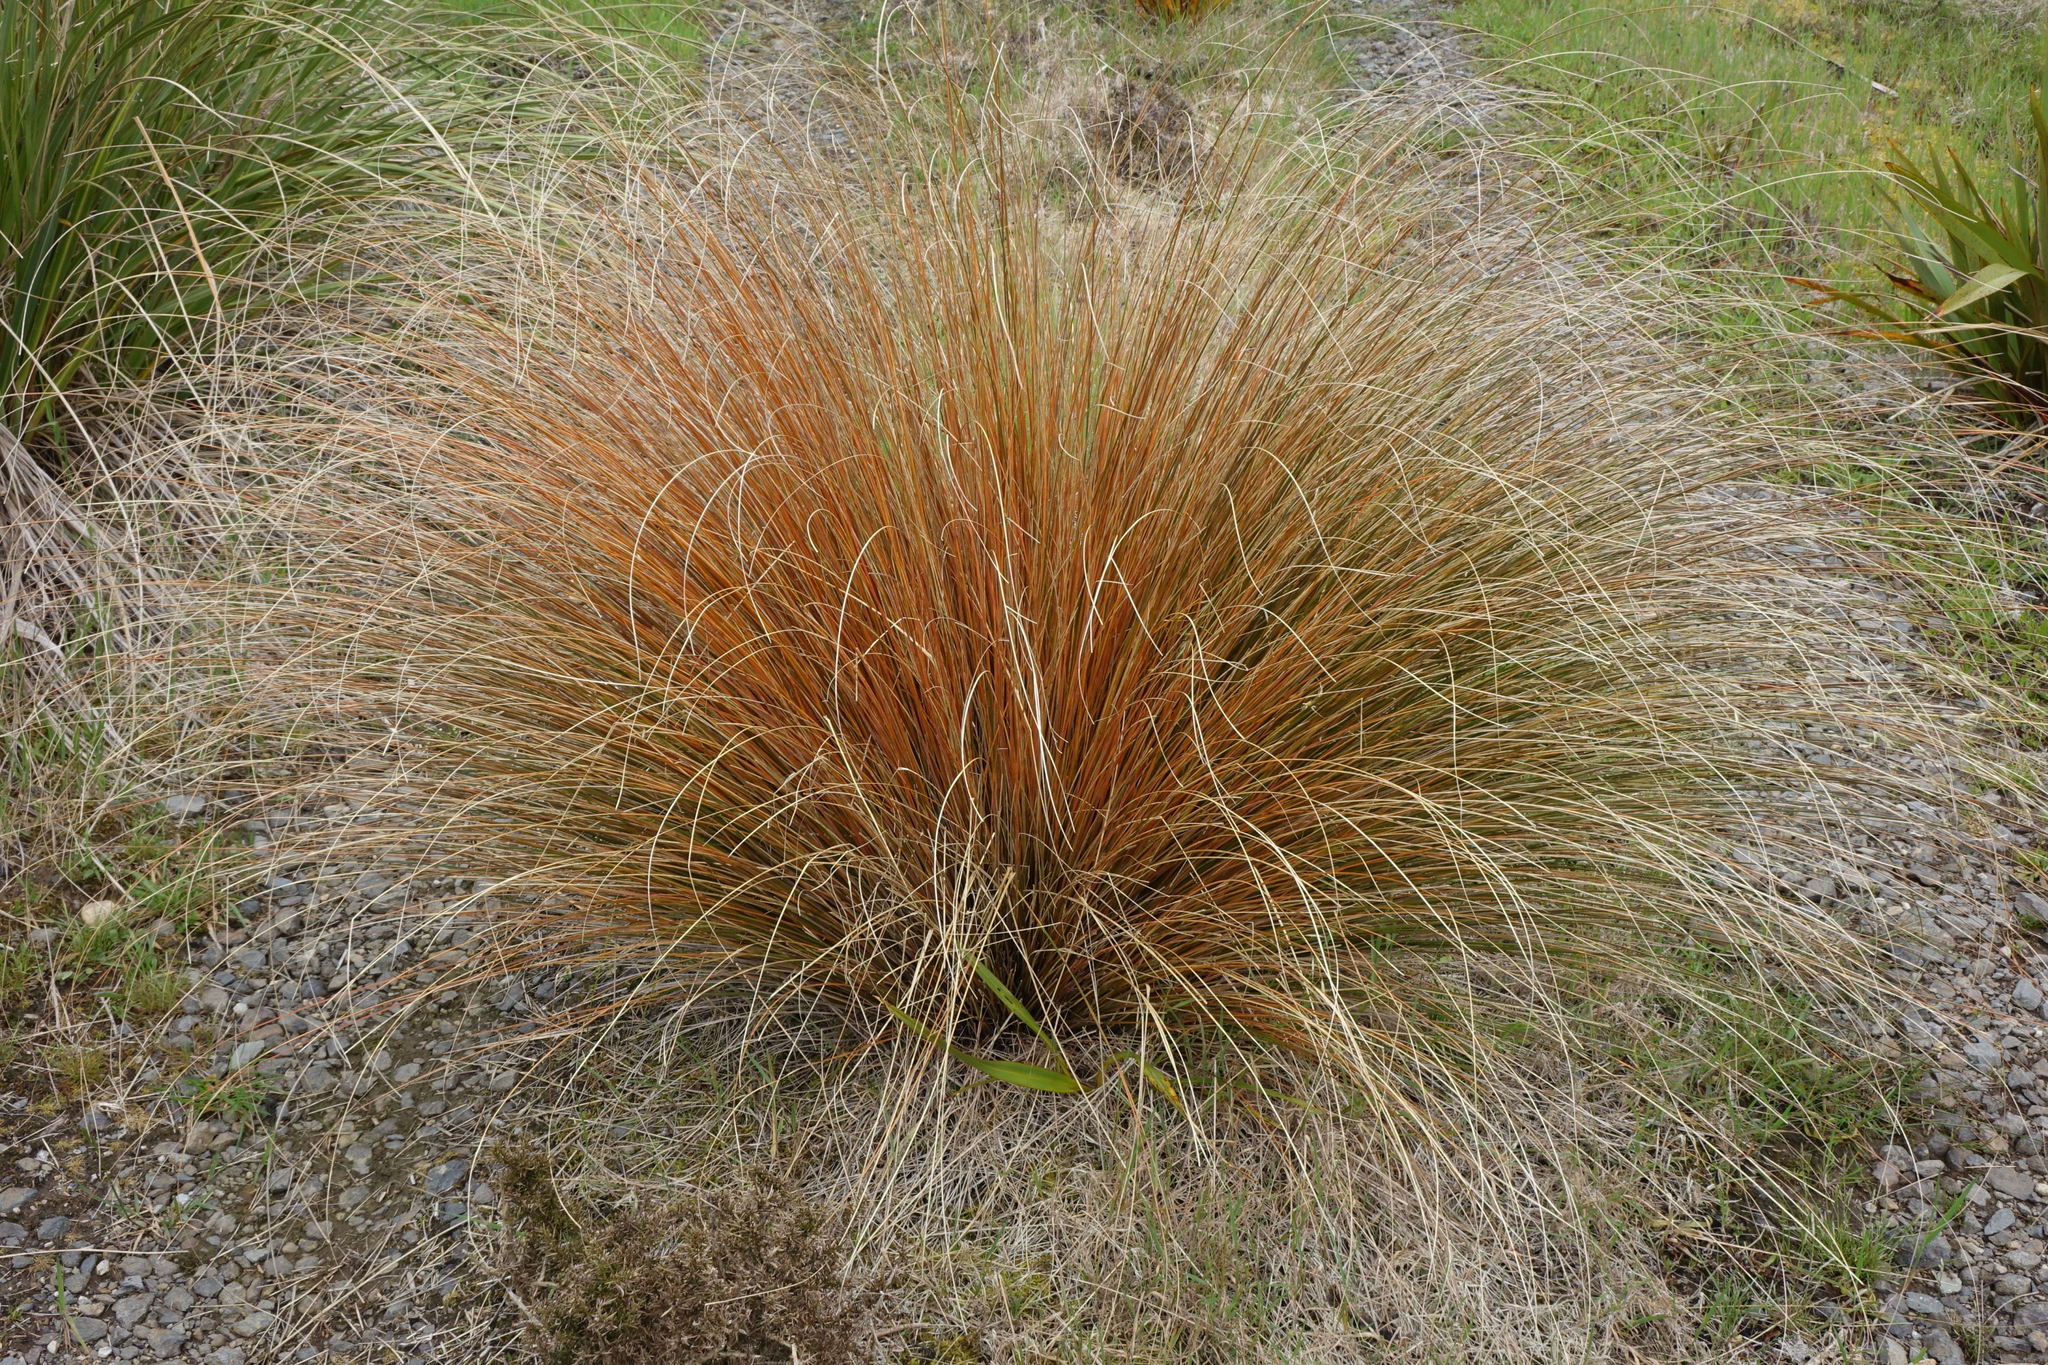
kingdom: Plantae
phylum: Tracheophyta
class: Liliopsida
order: Poales
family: Poaceae
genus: Chionochloa
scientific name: Chionochloa rubra
